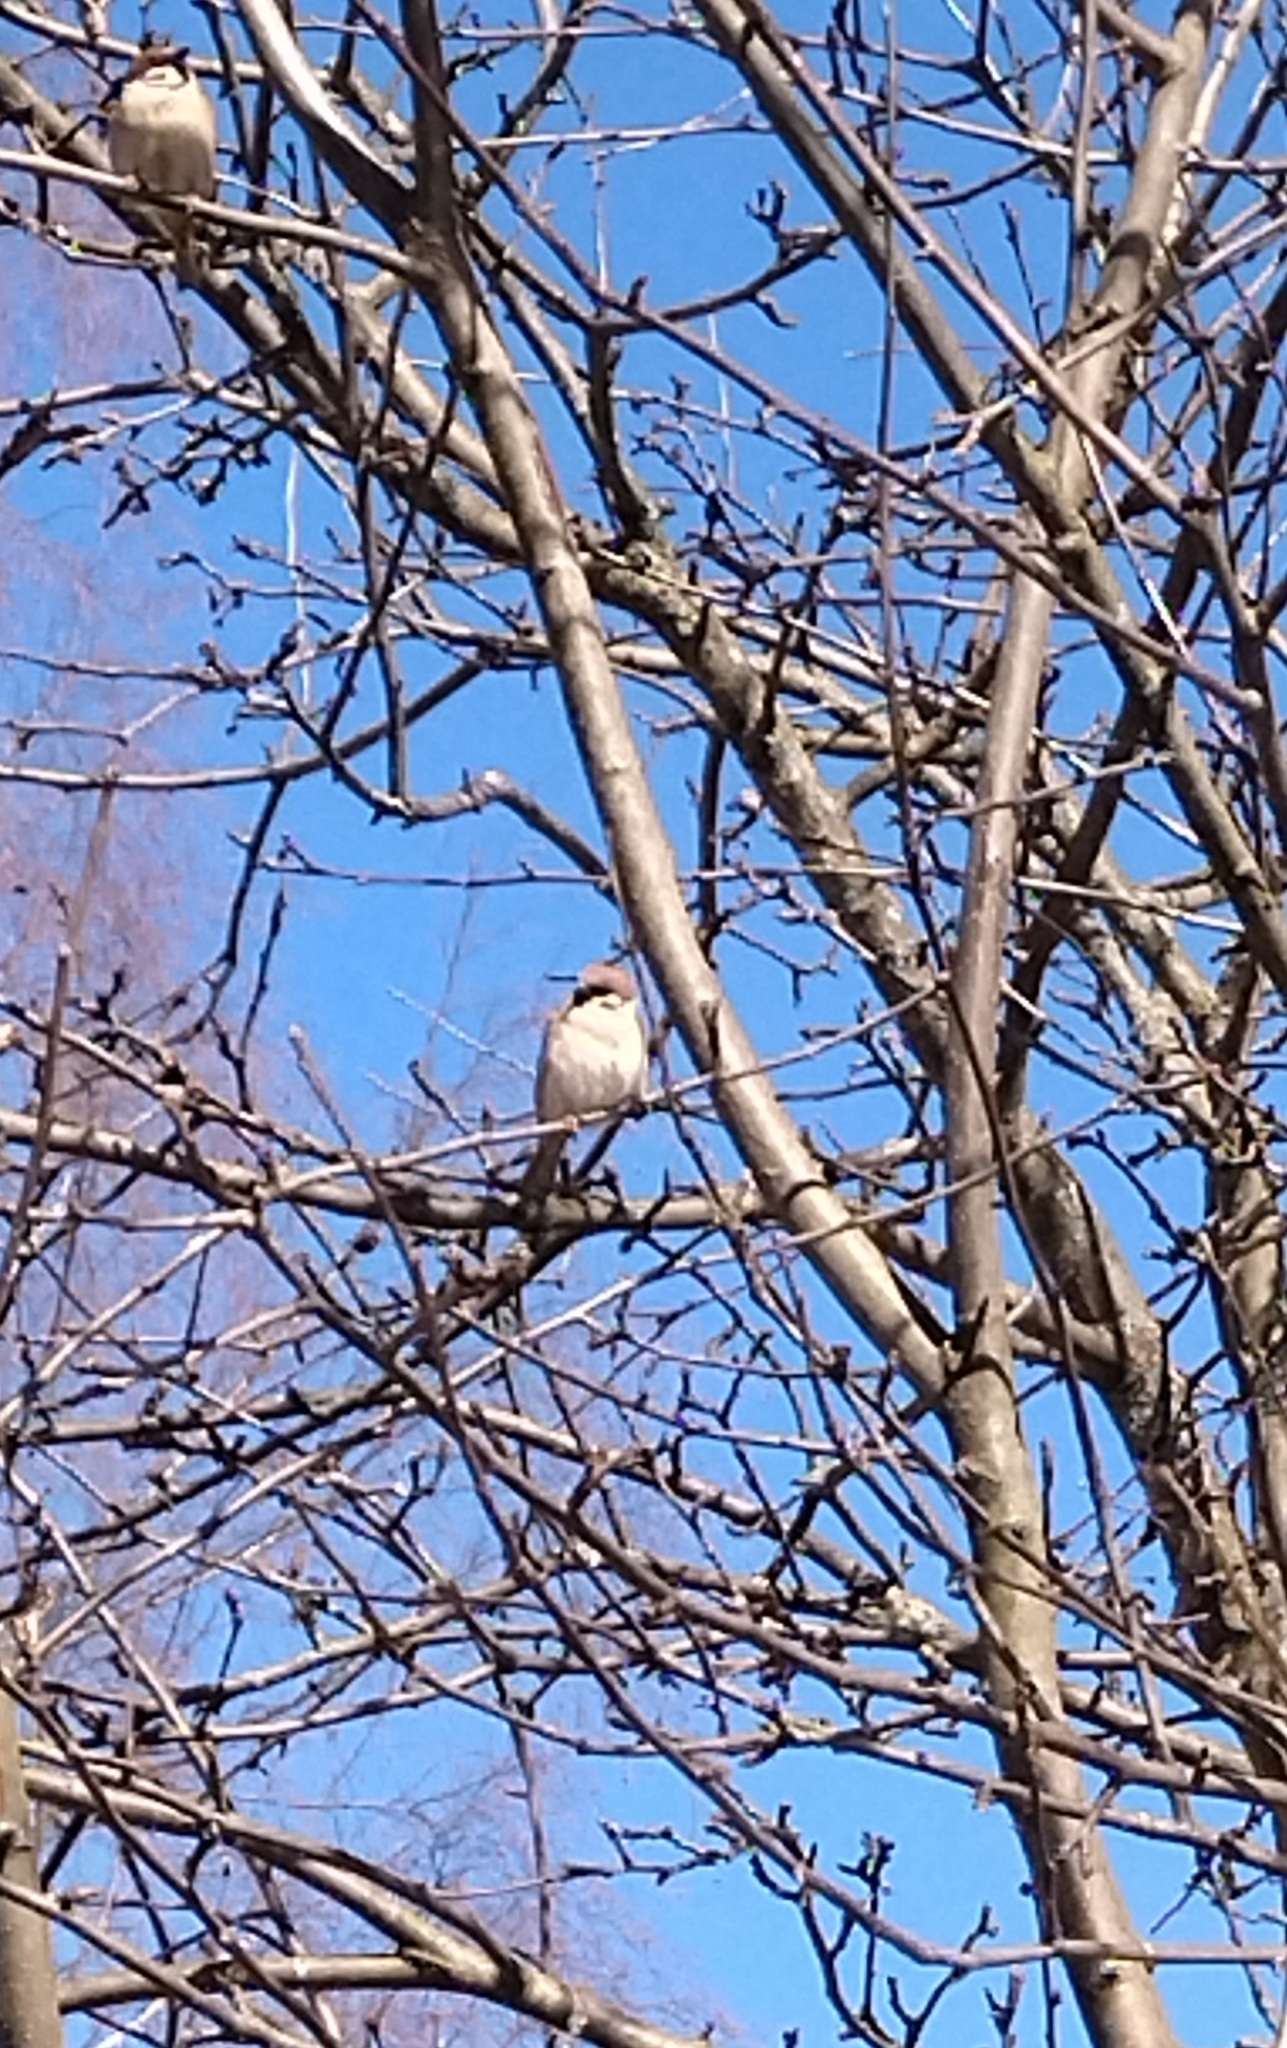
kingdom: Animalia
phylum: Chordata
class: Aves
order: Passeriformes
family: Passeridae
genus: Passer
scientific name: Passer montanus
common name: Eurasian tree sparrow
